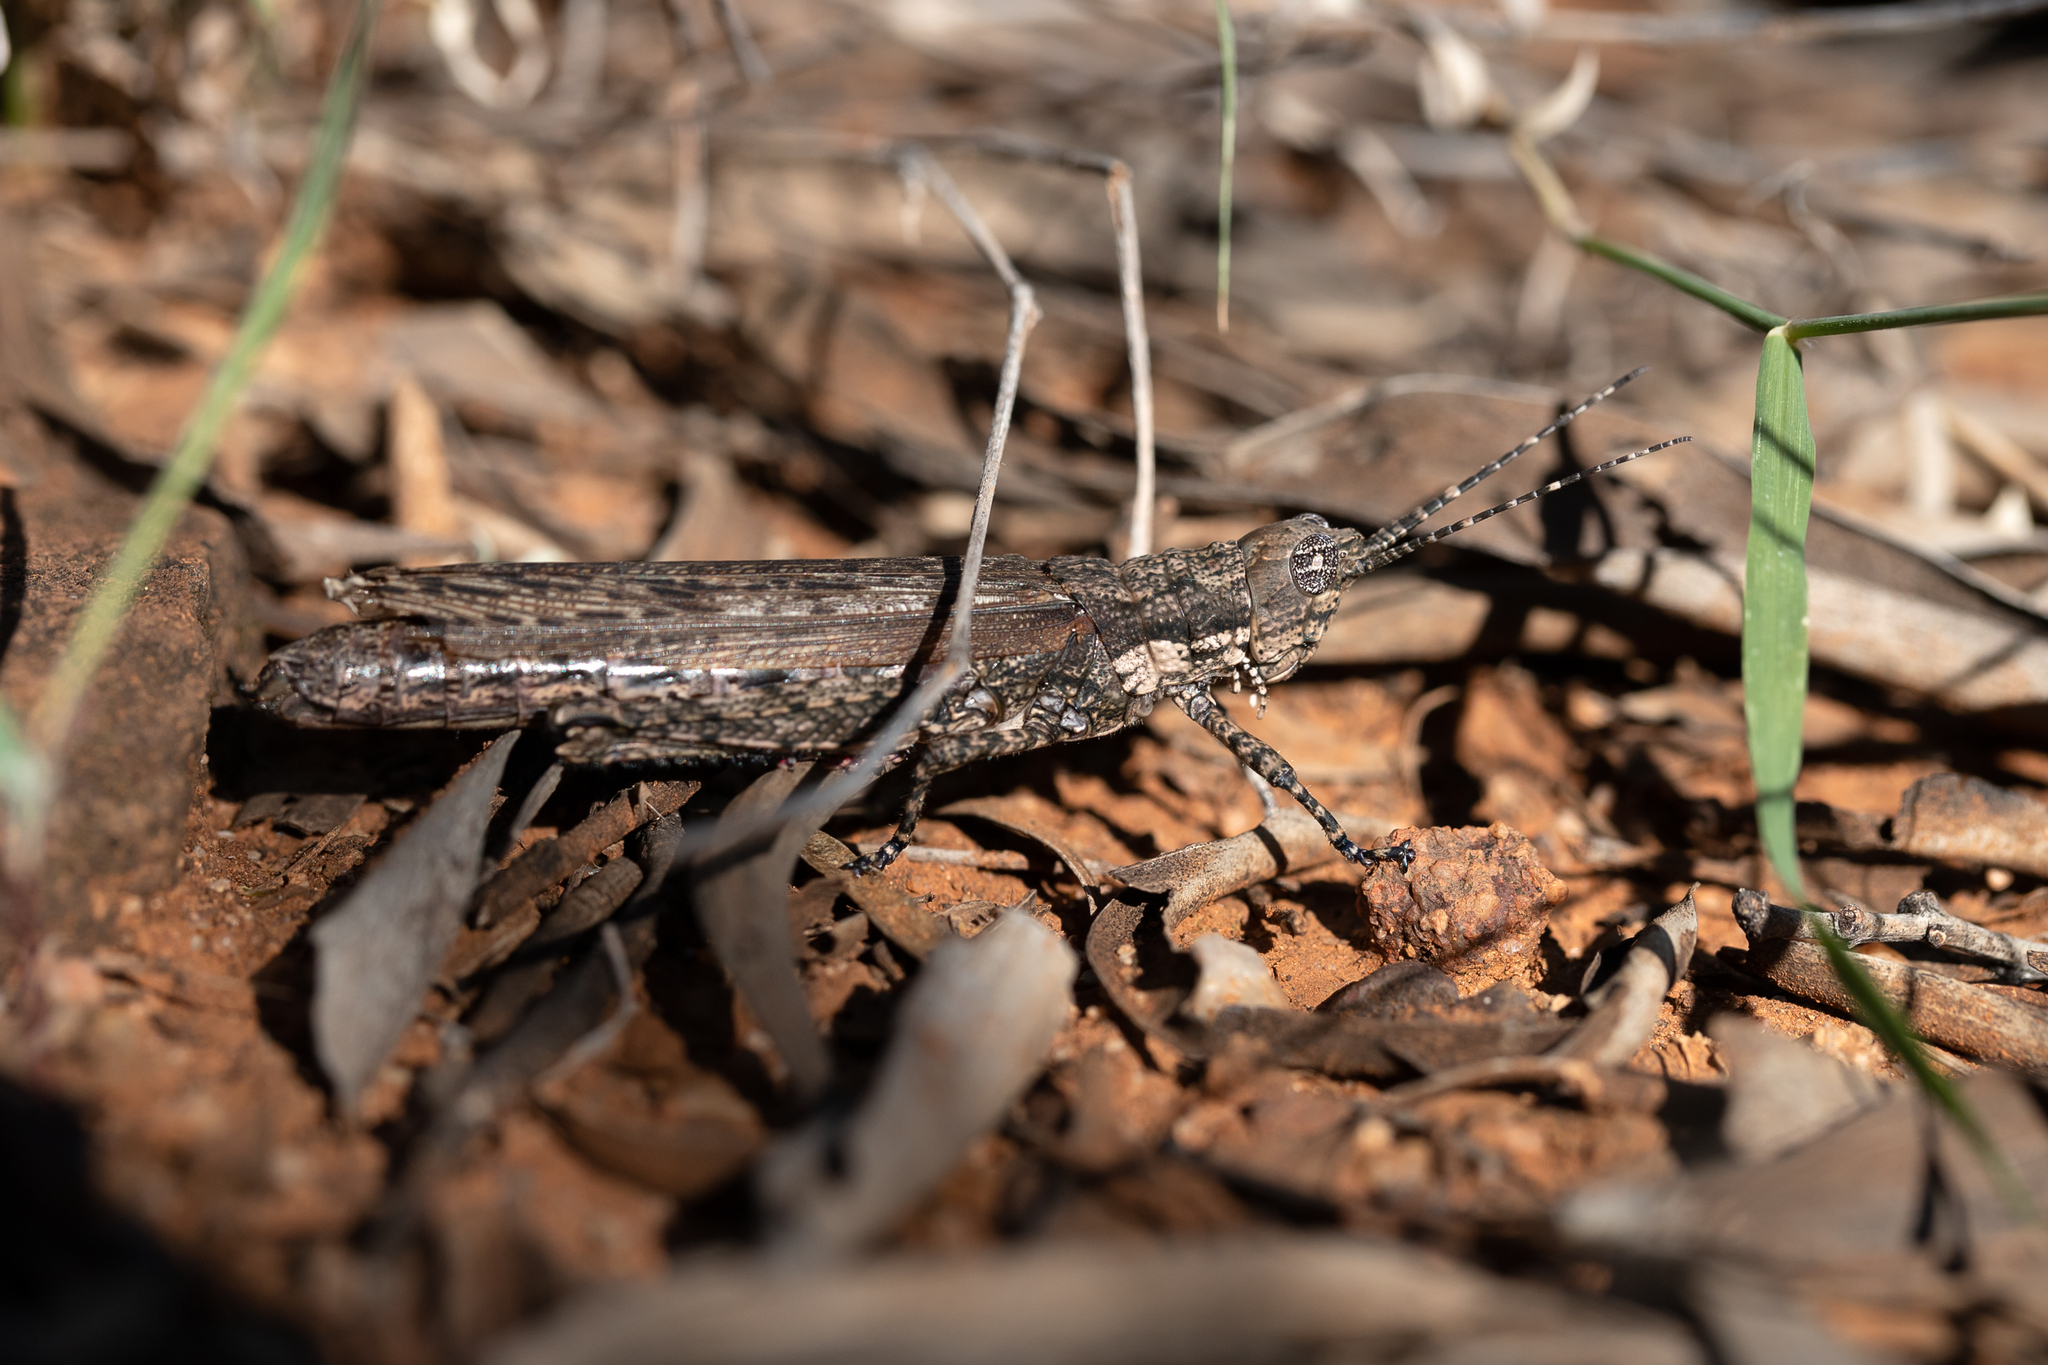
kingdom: Animalia
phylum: Arthropoda
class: Insecta
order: Orthoptera
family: Acrididae
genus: Coryphistes
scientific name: Coryphistes ruricola
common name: Bark-mimicking grasshopper
